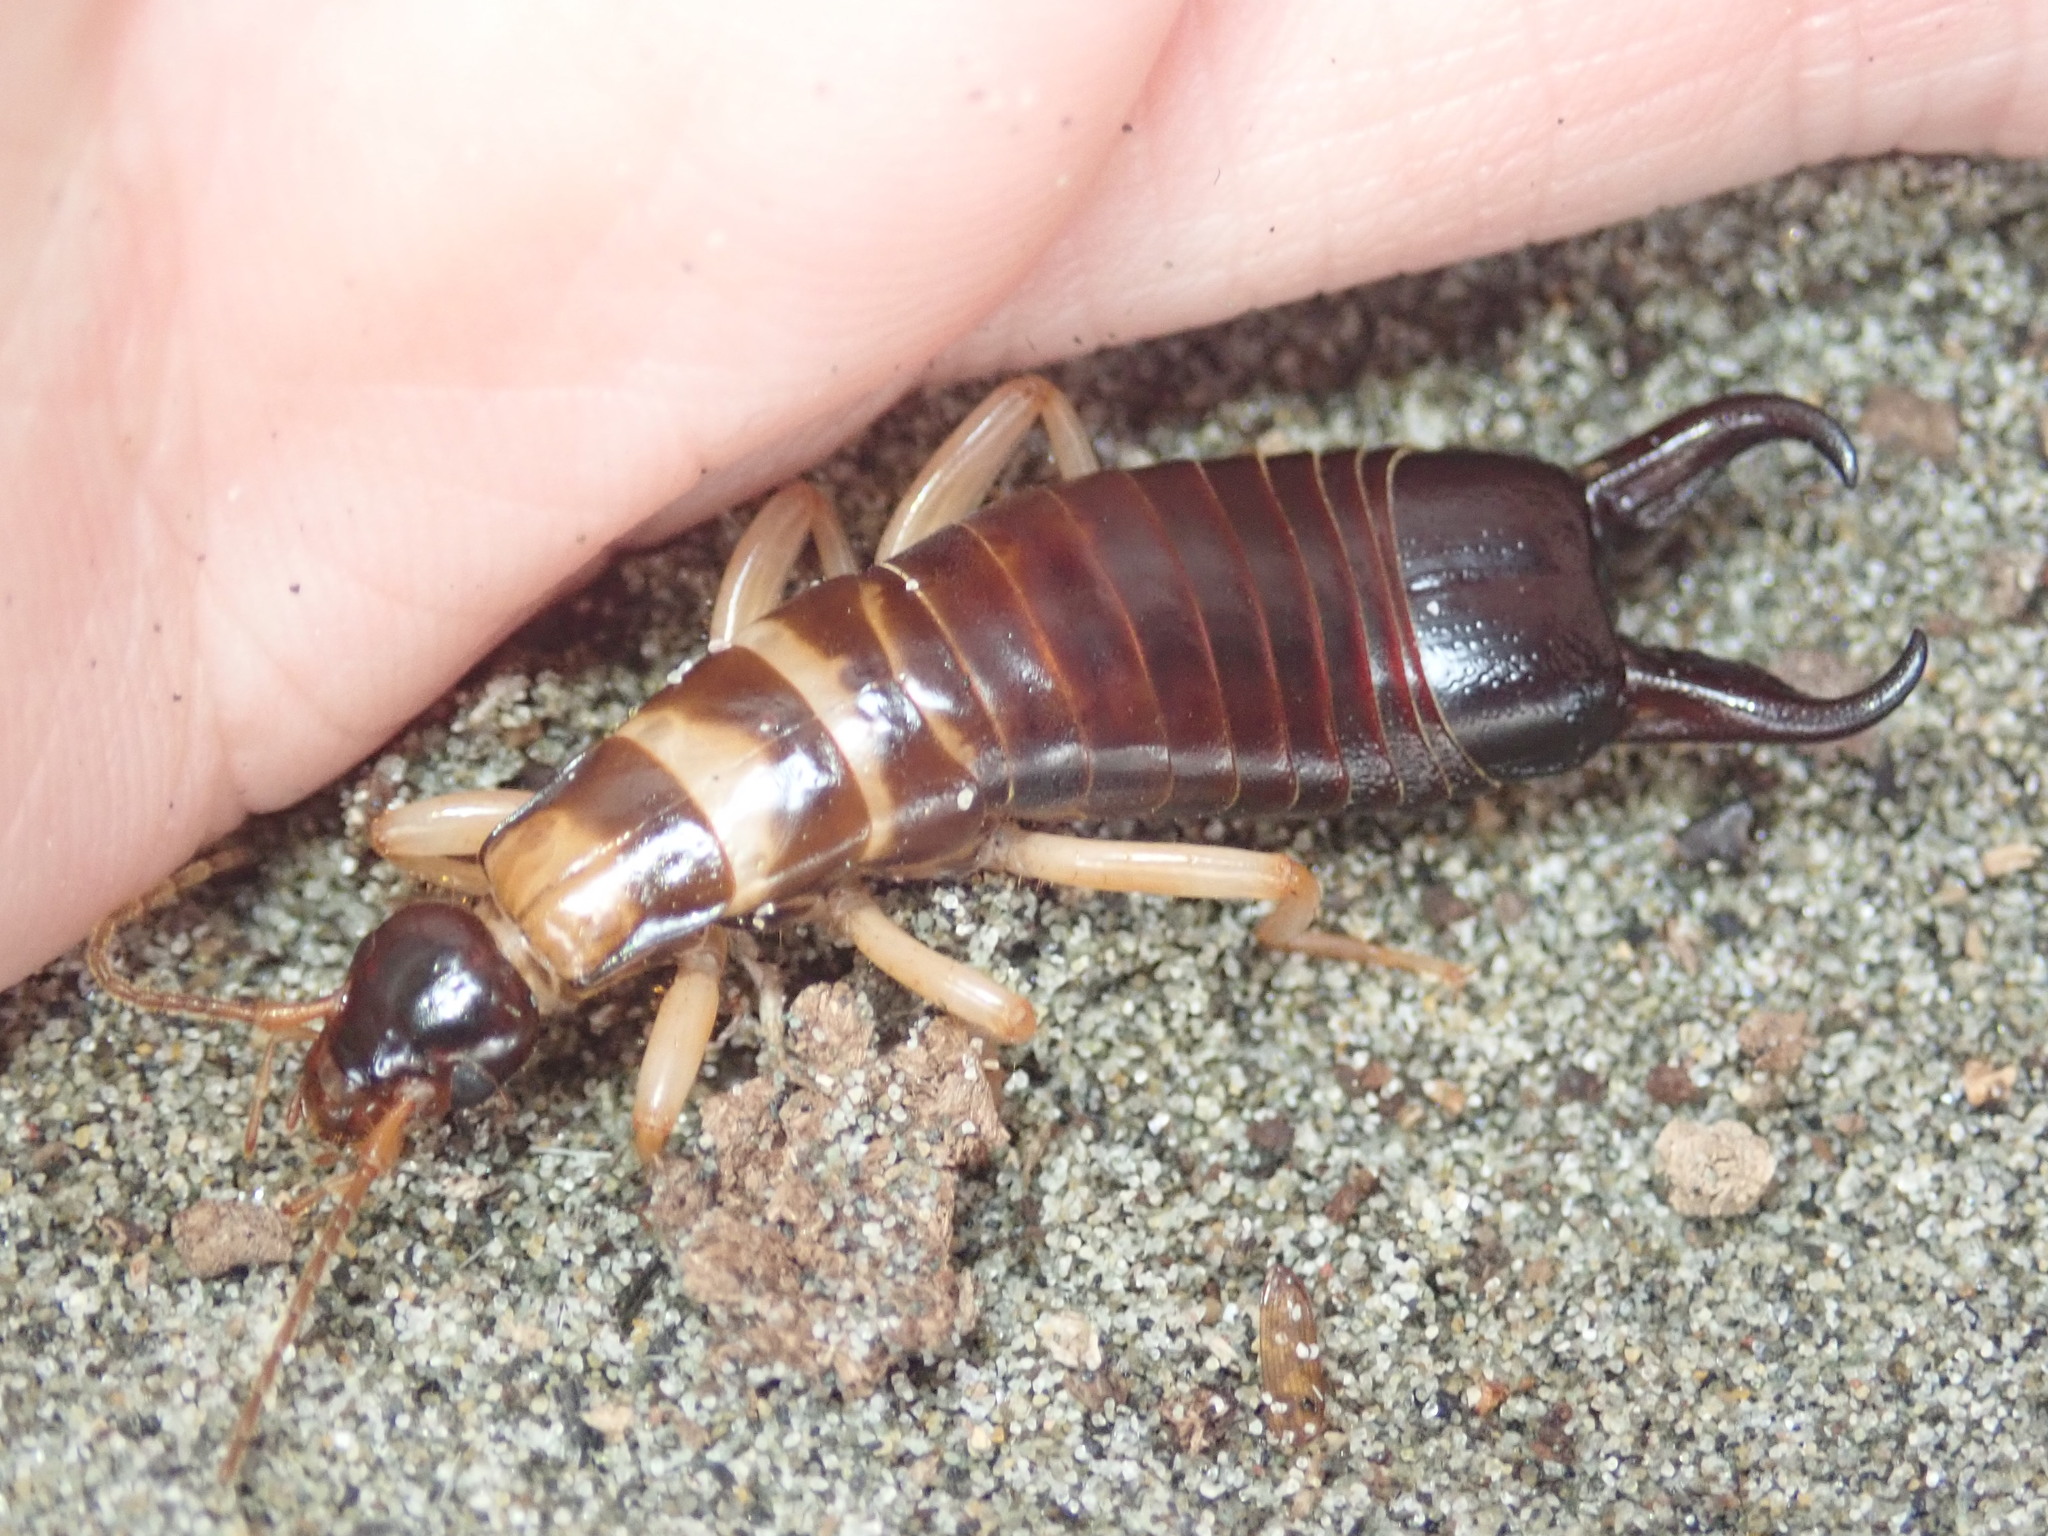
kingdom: Animalia
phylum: Arthropoda
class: Insecta
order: Dermaptera
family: Anisolabididae
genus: Anisolabis
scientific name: Anisolabis littorea
